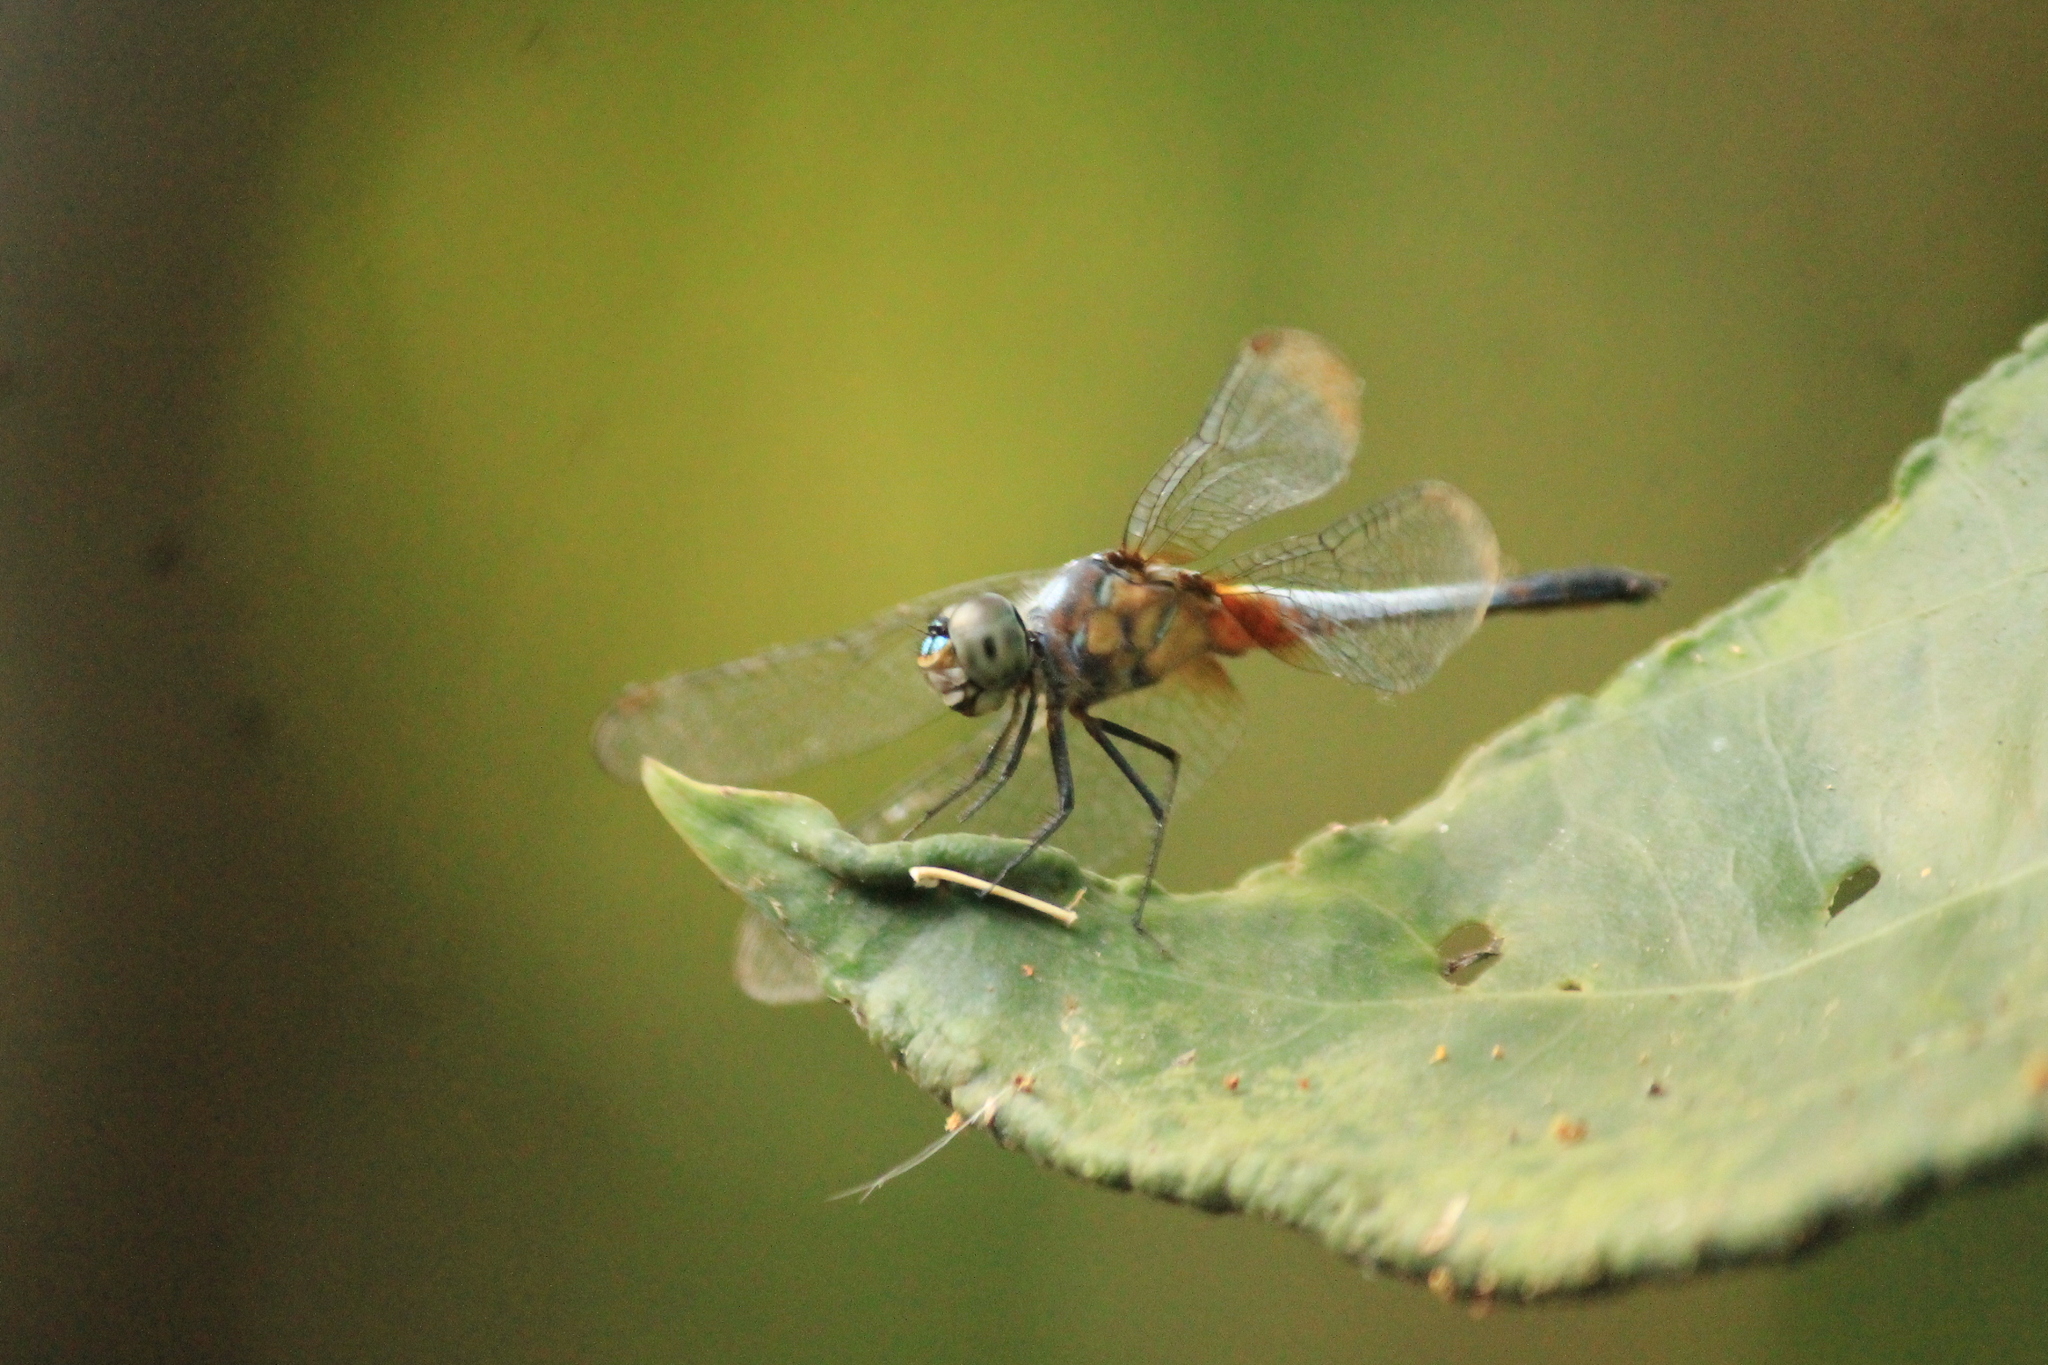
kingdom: Animalia
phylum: Arthropoda
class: Insecta
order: Odonata
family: Libellulidae
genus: Brachydiplax
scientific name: Brachydiplax chalybea
